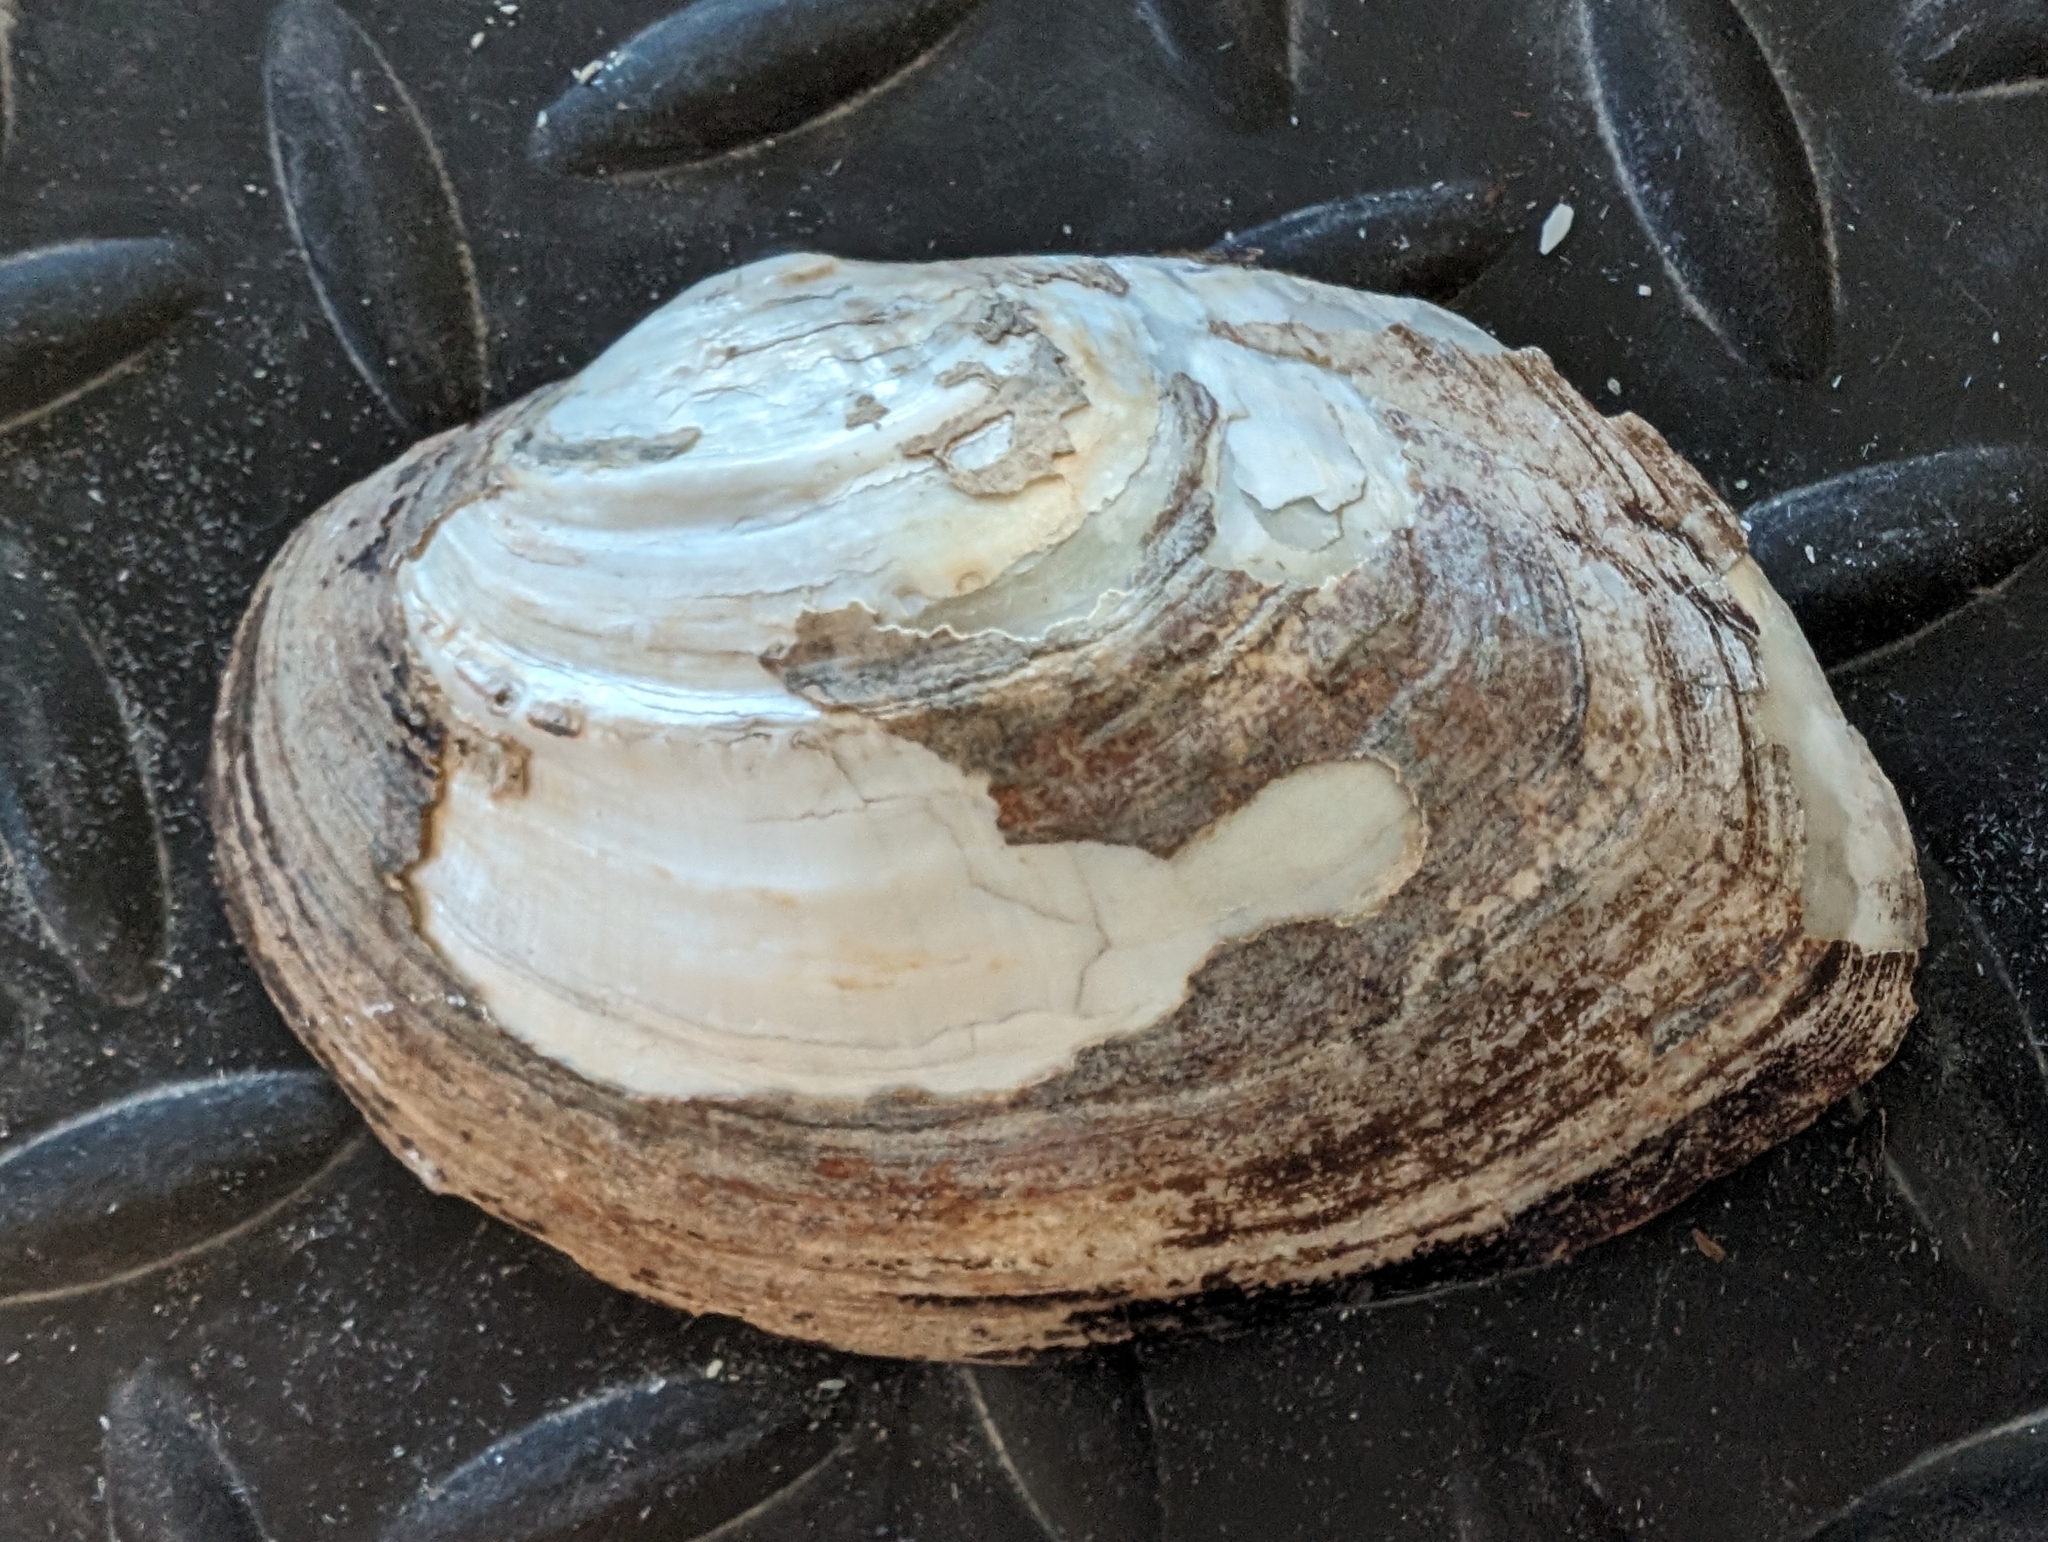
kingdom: Animalia
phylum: Mollusca
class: Bivalvia
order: Unionida
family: Unionidae
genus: Lasmigona
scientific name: Lasmigona complanata
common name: White heelsplitter
